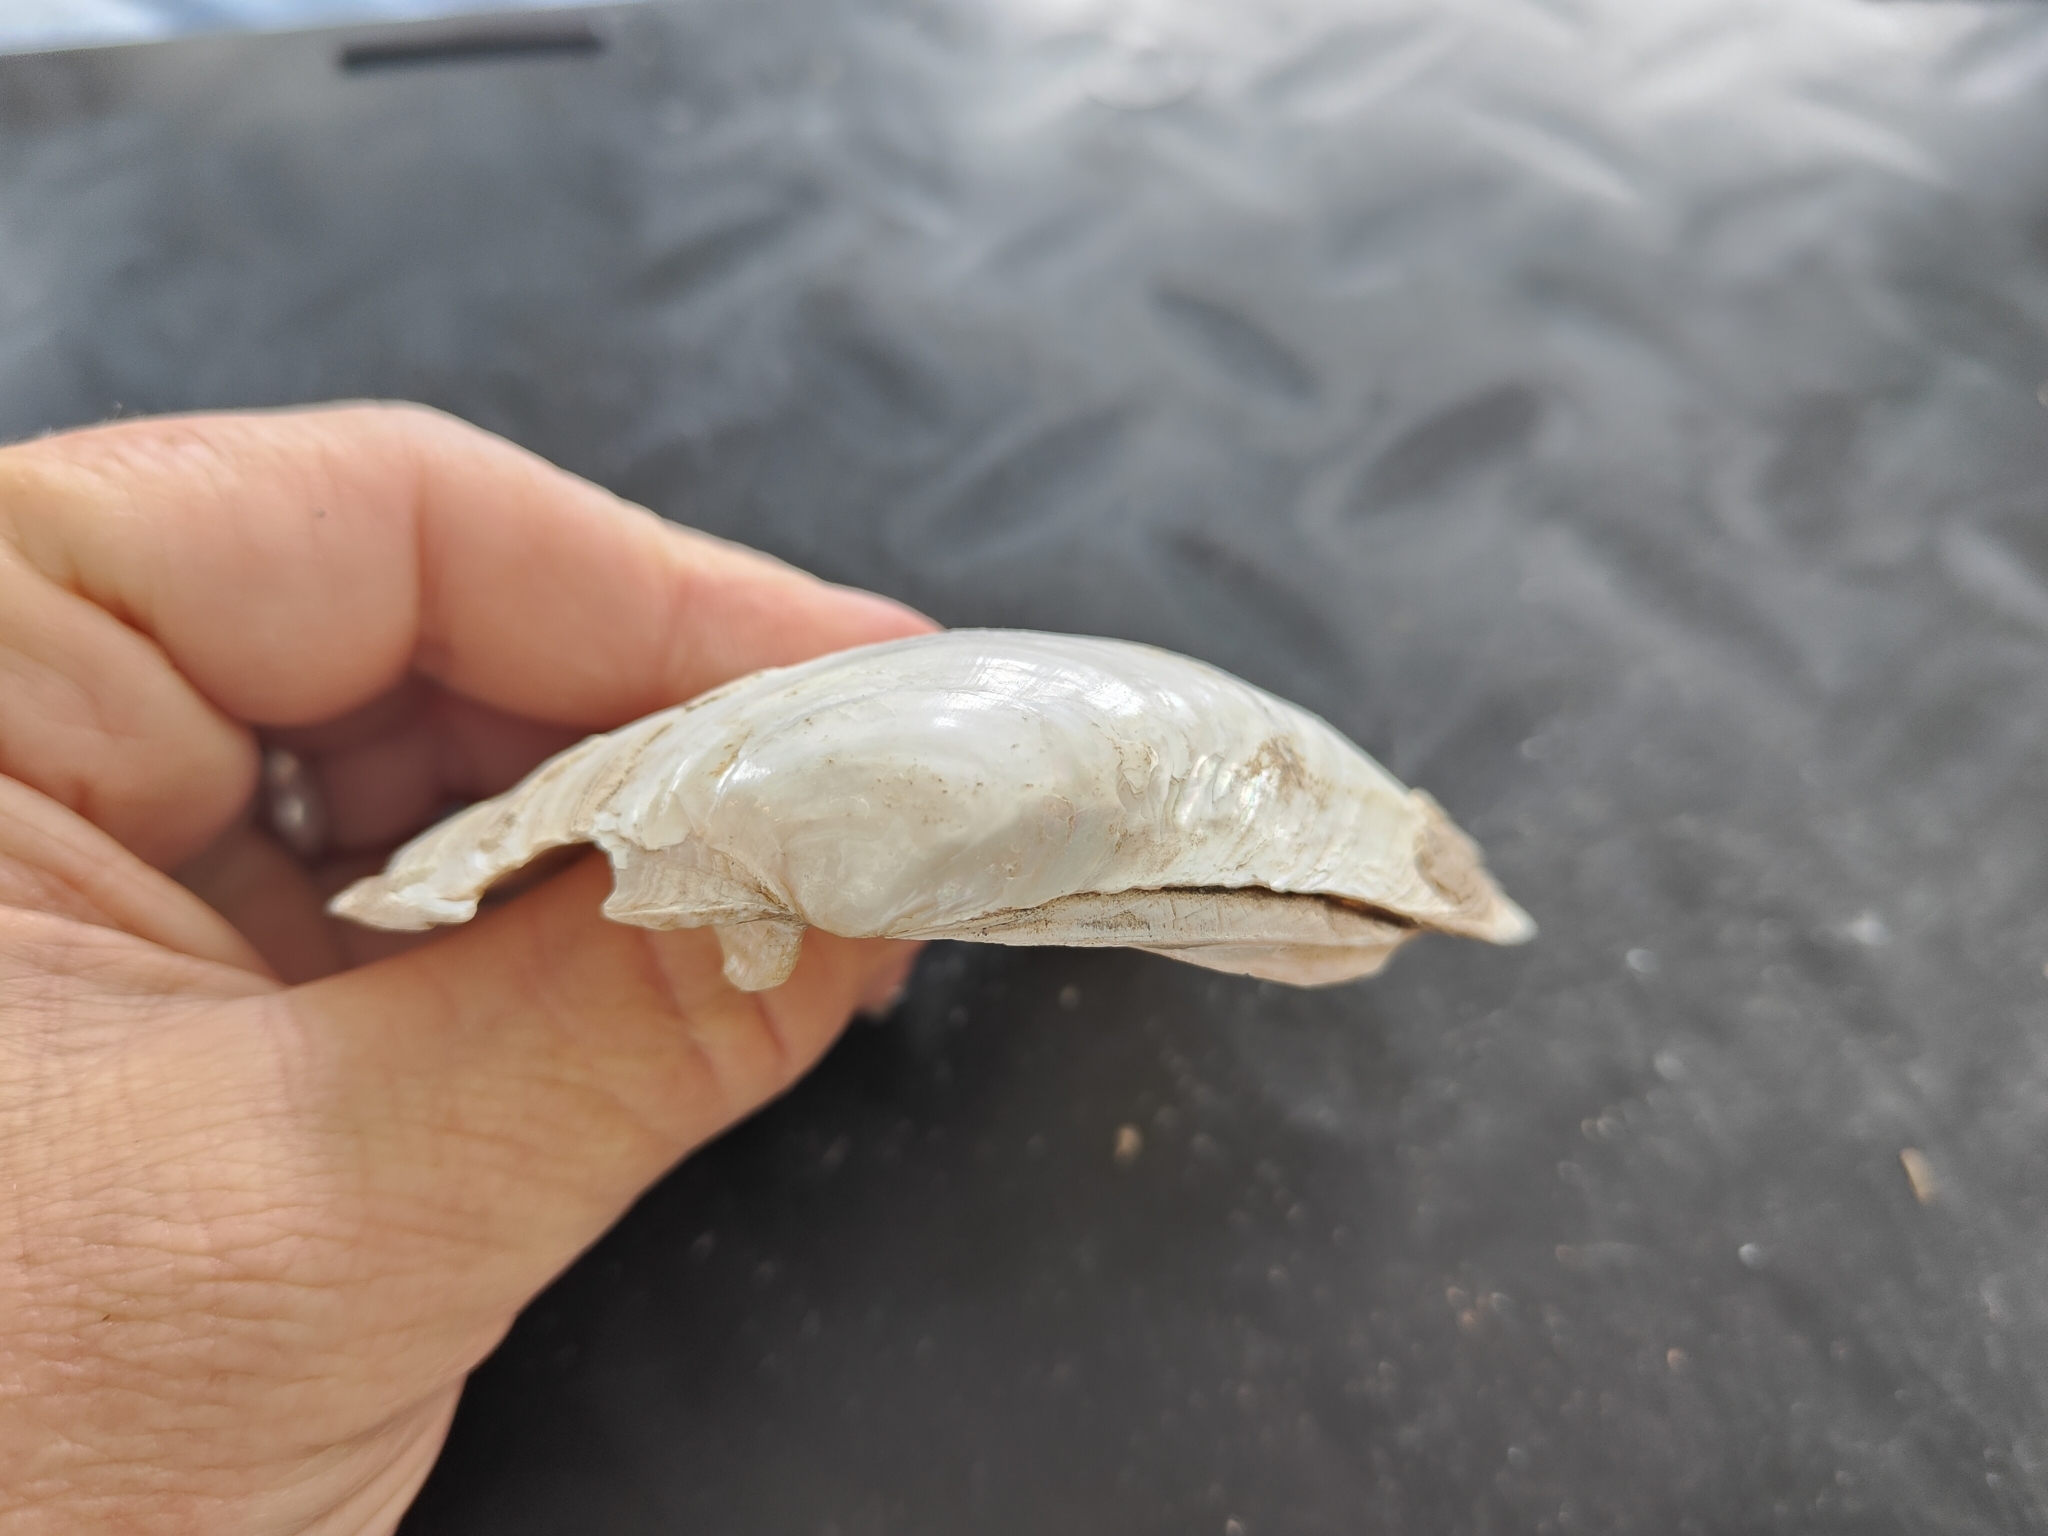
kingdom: Animalia
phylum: Mollusca
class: Bivalvia
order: Unionida
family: Unionidae
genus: Lampsilis
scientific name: Lampsilis cardium
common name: Plain pocketbook
